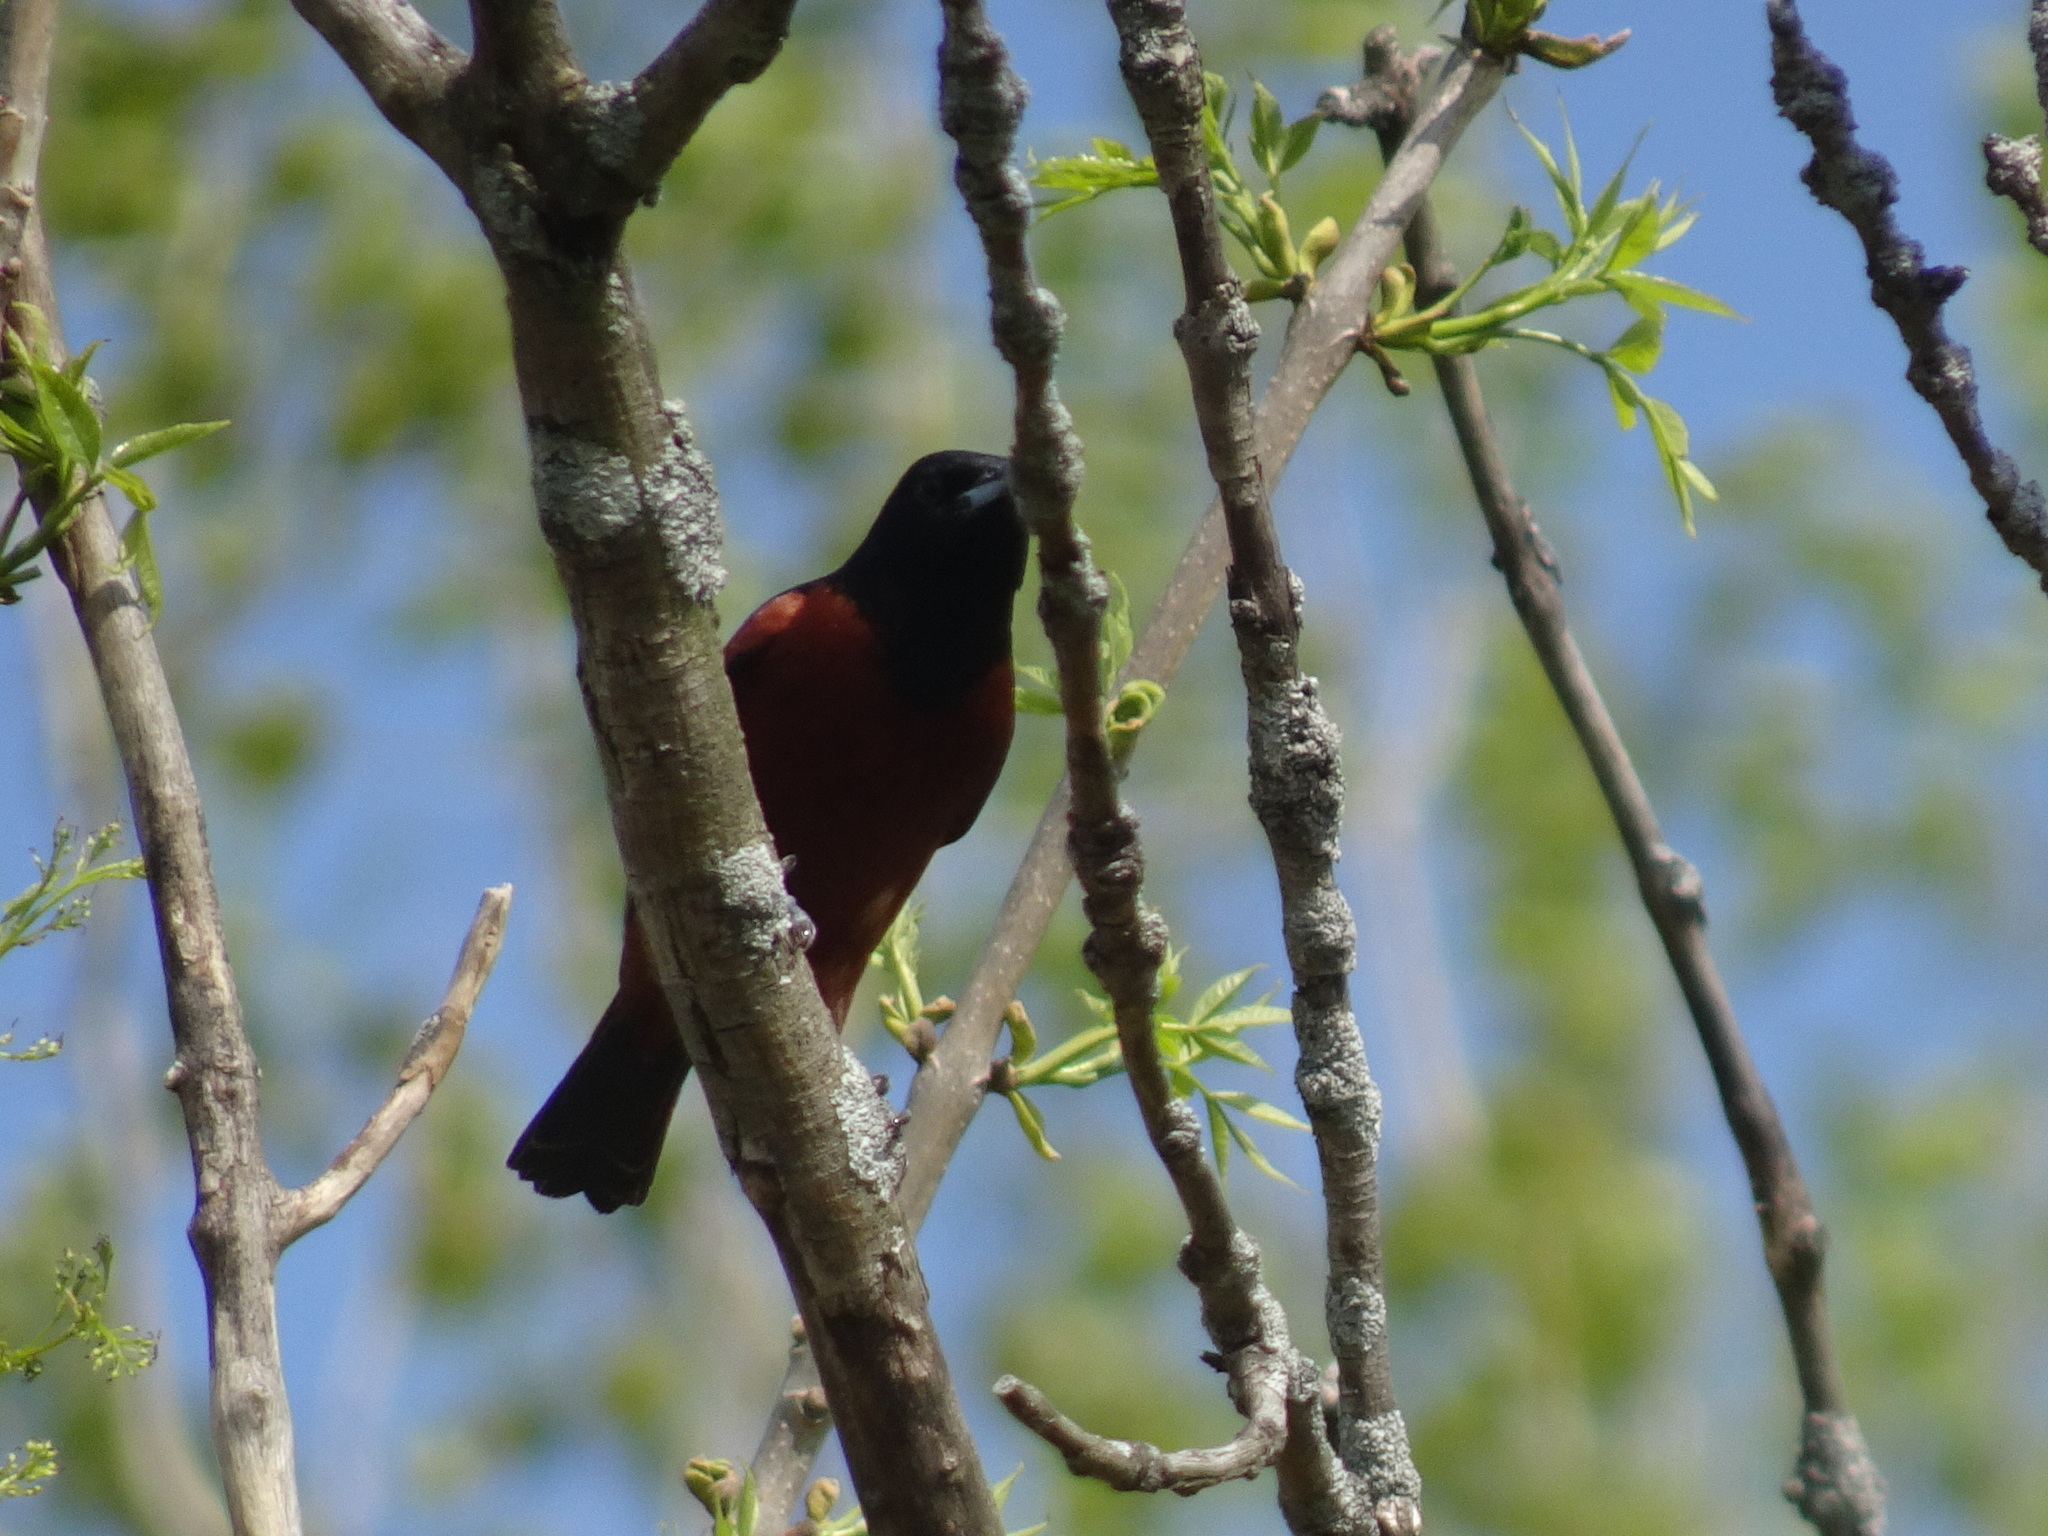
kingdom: Animalia
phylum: Chordata
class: Aves
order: Passeriformes
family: Icteridae
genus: Icterus
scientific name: Icterus spurius
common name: Orchard oriole
